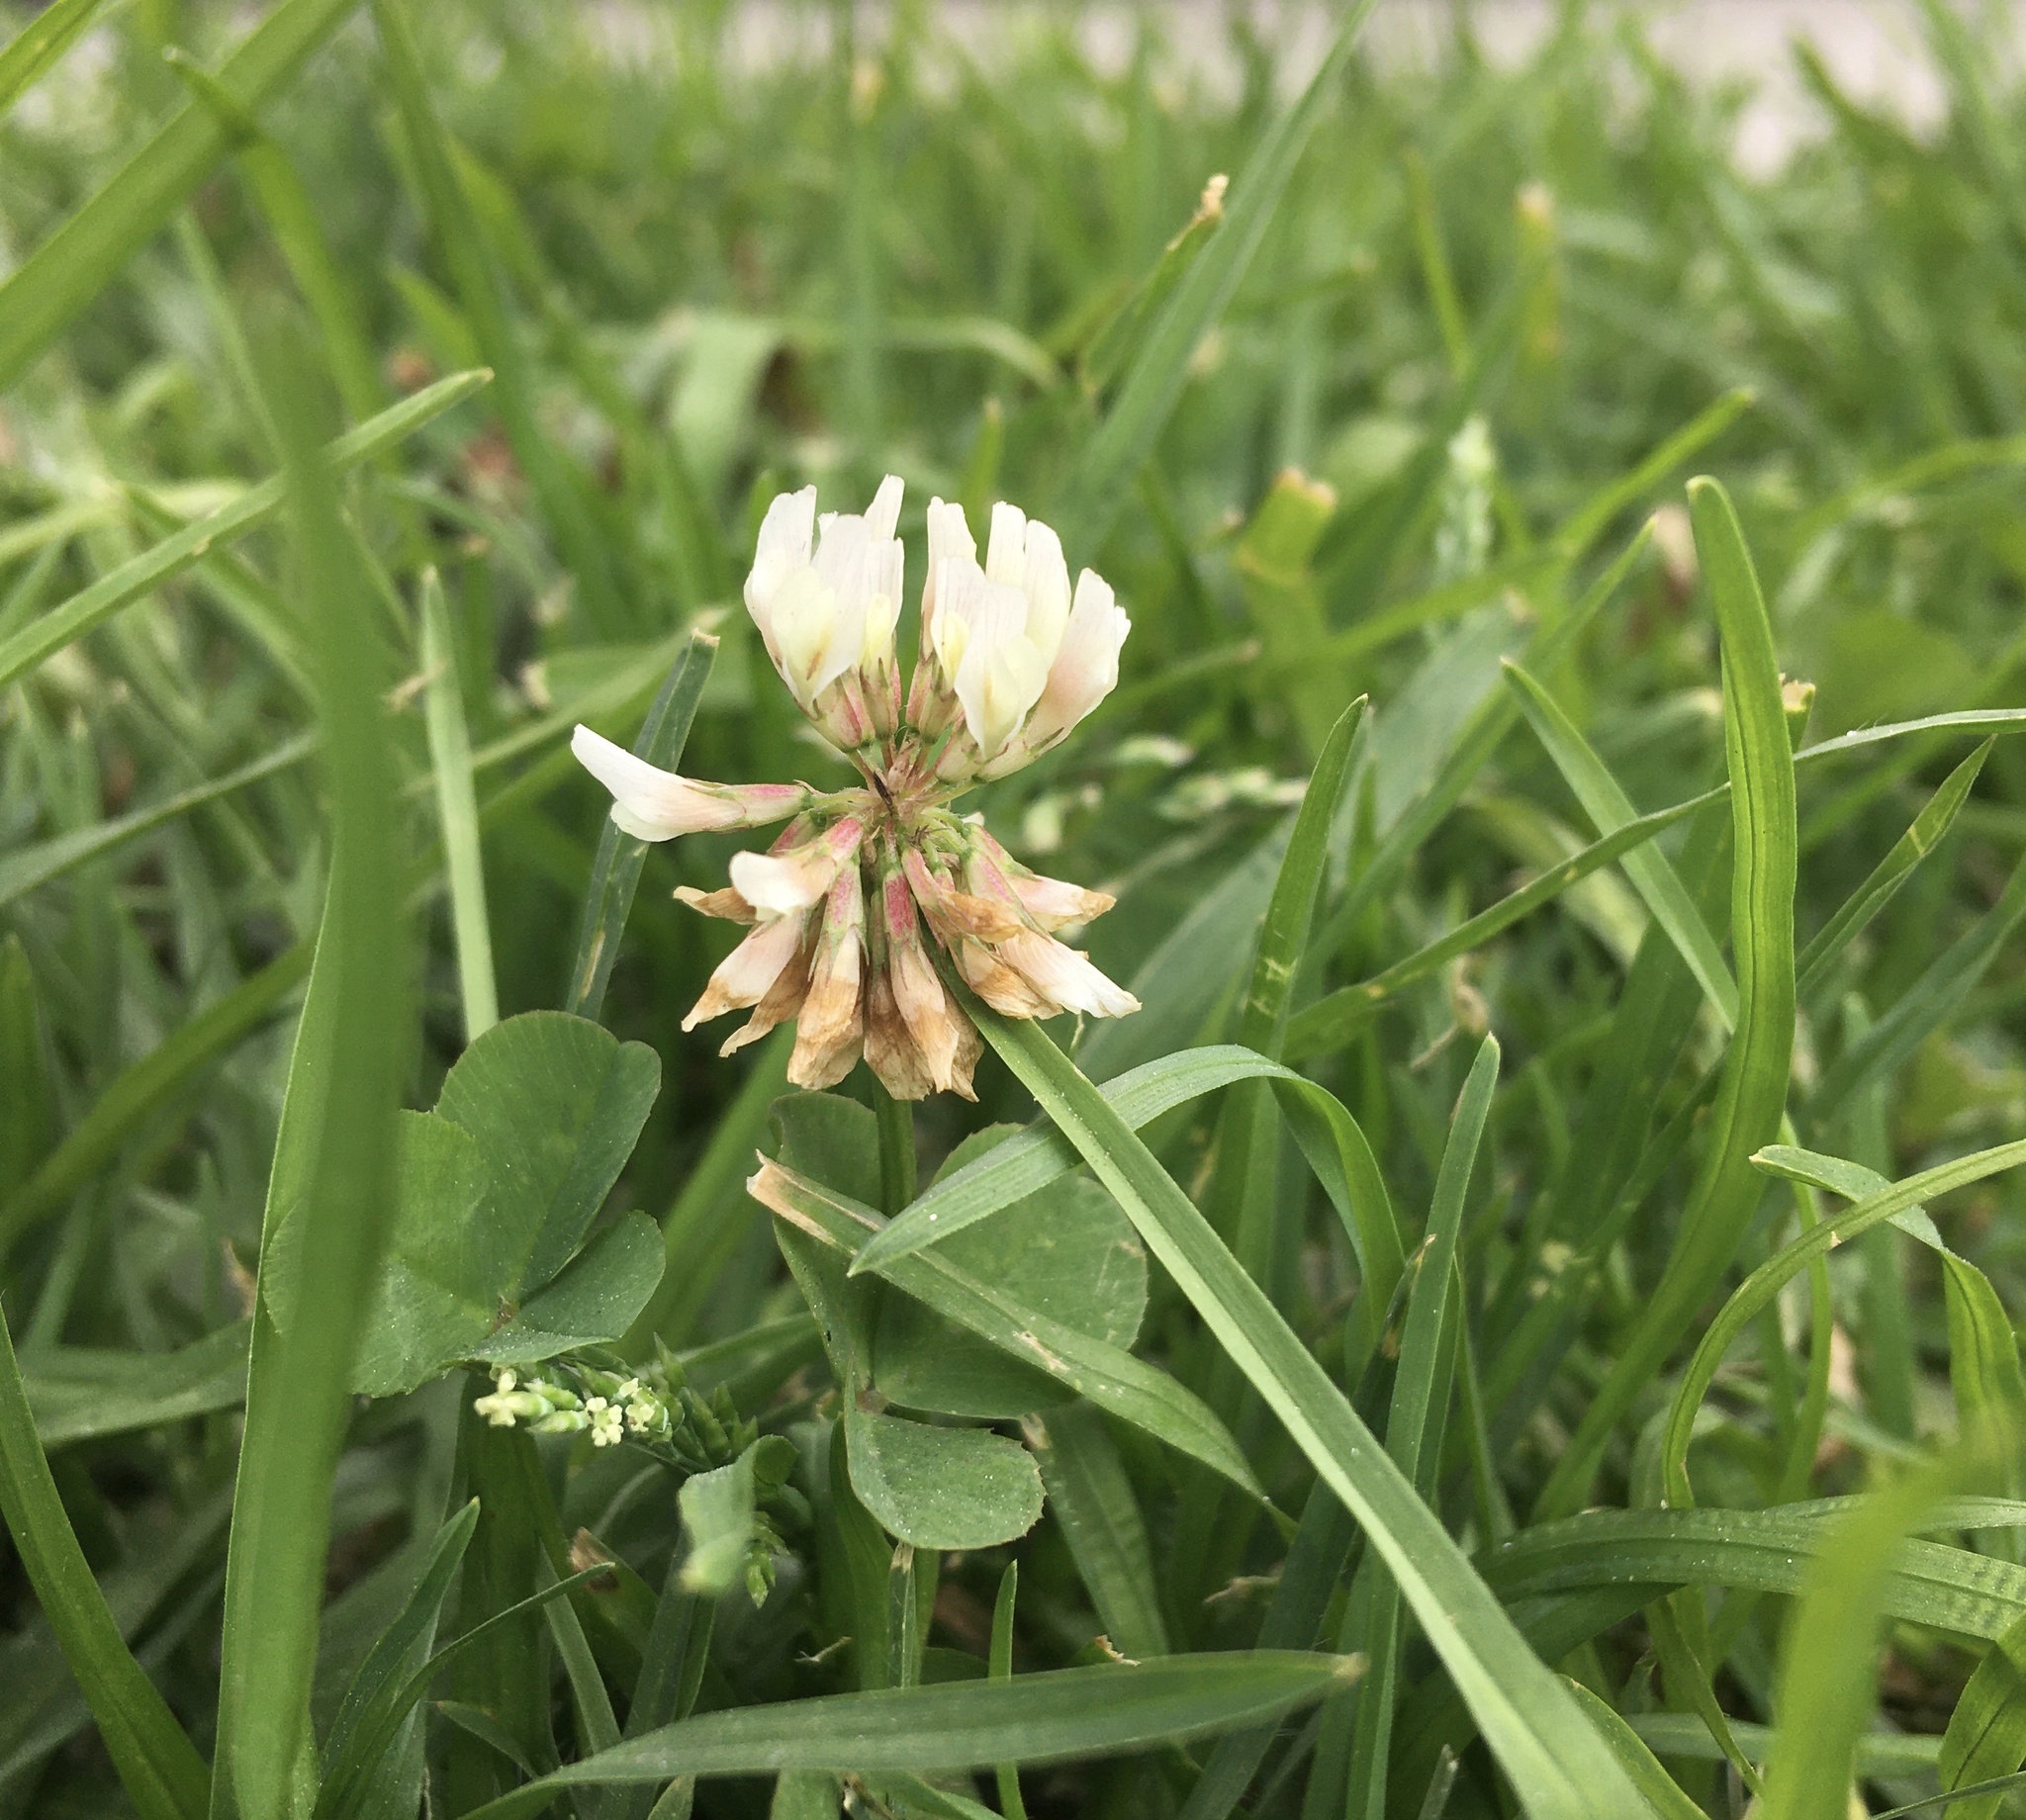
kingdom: Plantae
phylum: Tracheophyta
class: Magnoliopsida
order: Fabales
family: Fabaceae
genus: Trifolium
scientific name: Trifolium repens
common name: White clover
